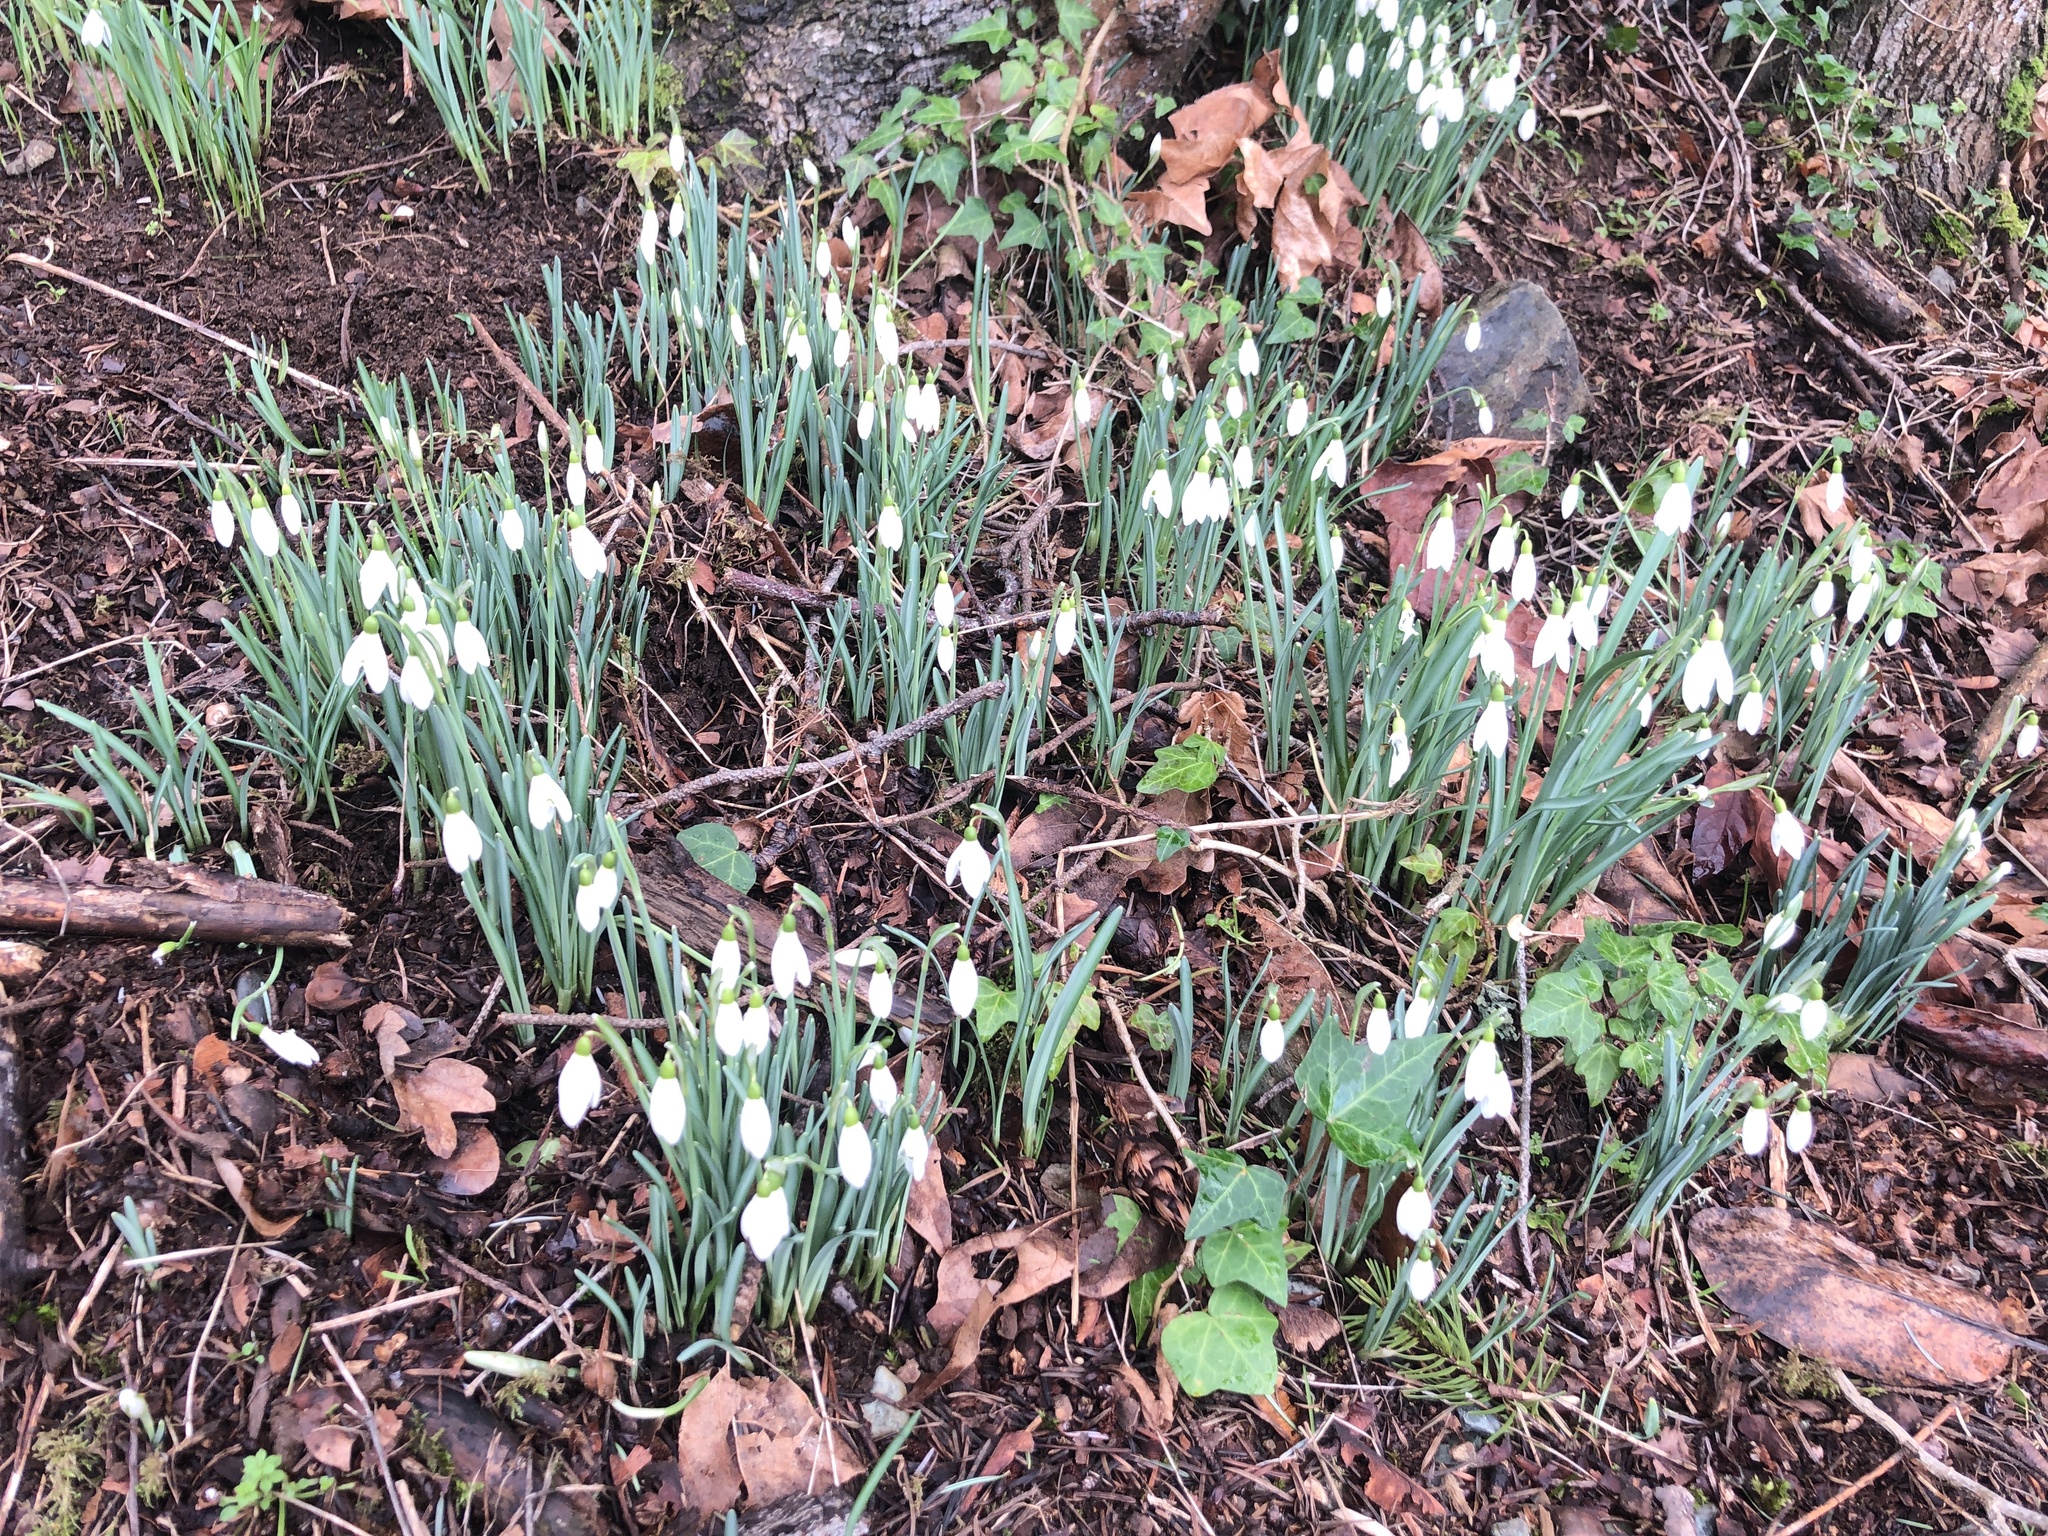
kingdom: Plantae
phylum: Tracheophyta
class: Liliopsida
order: Asparagales
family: Amaryllidaceae
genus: Galanthus
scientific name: Galanthus nivalis
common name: Snowdrop
